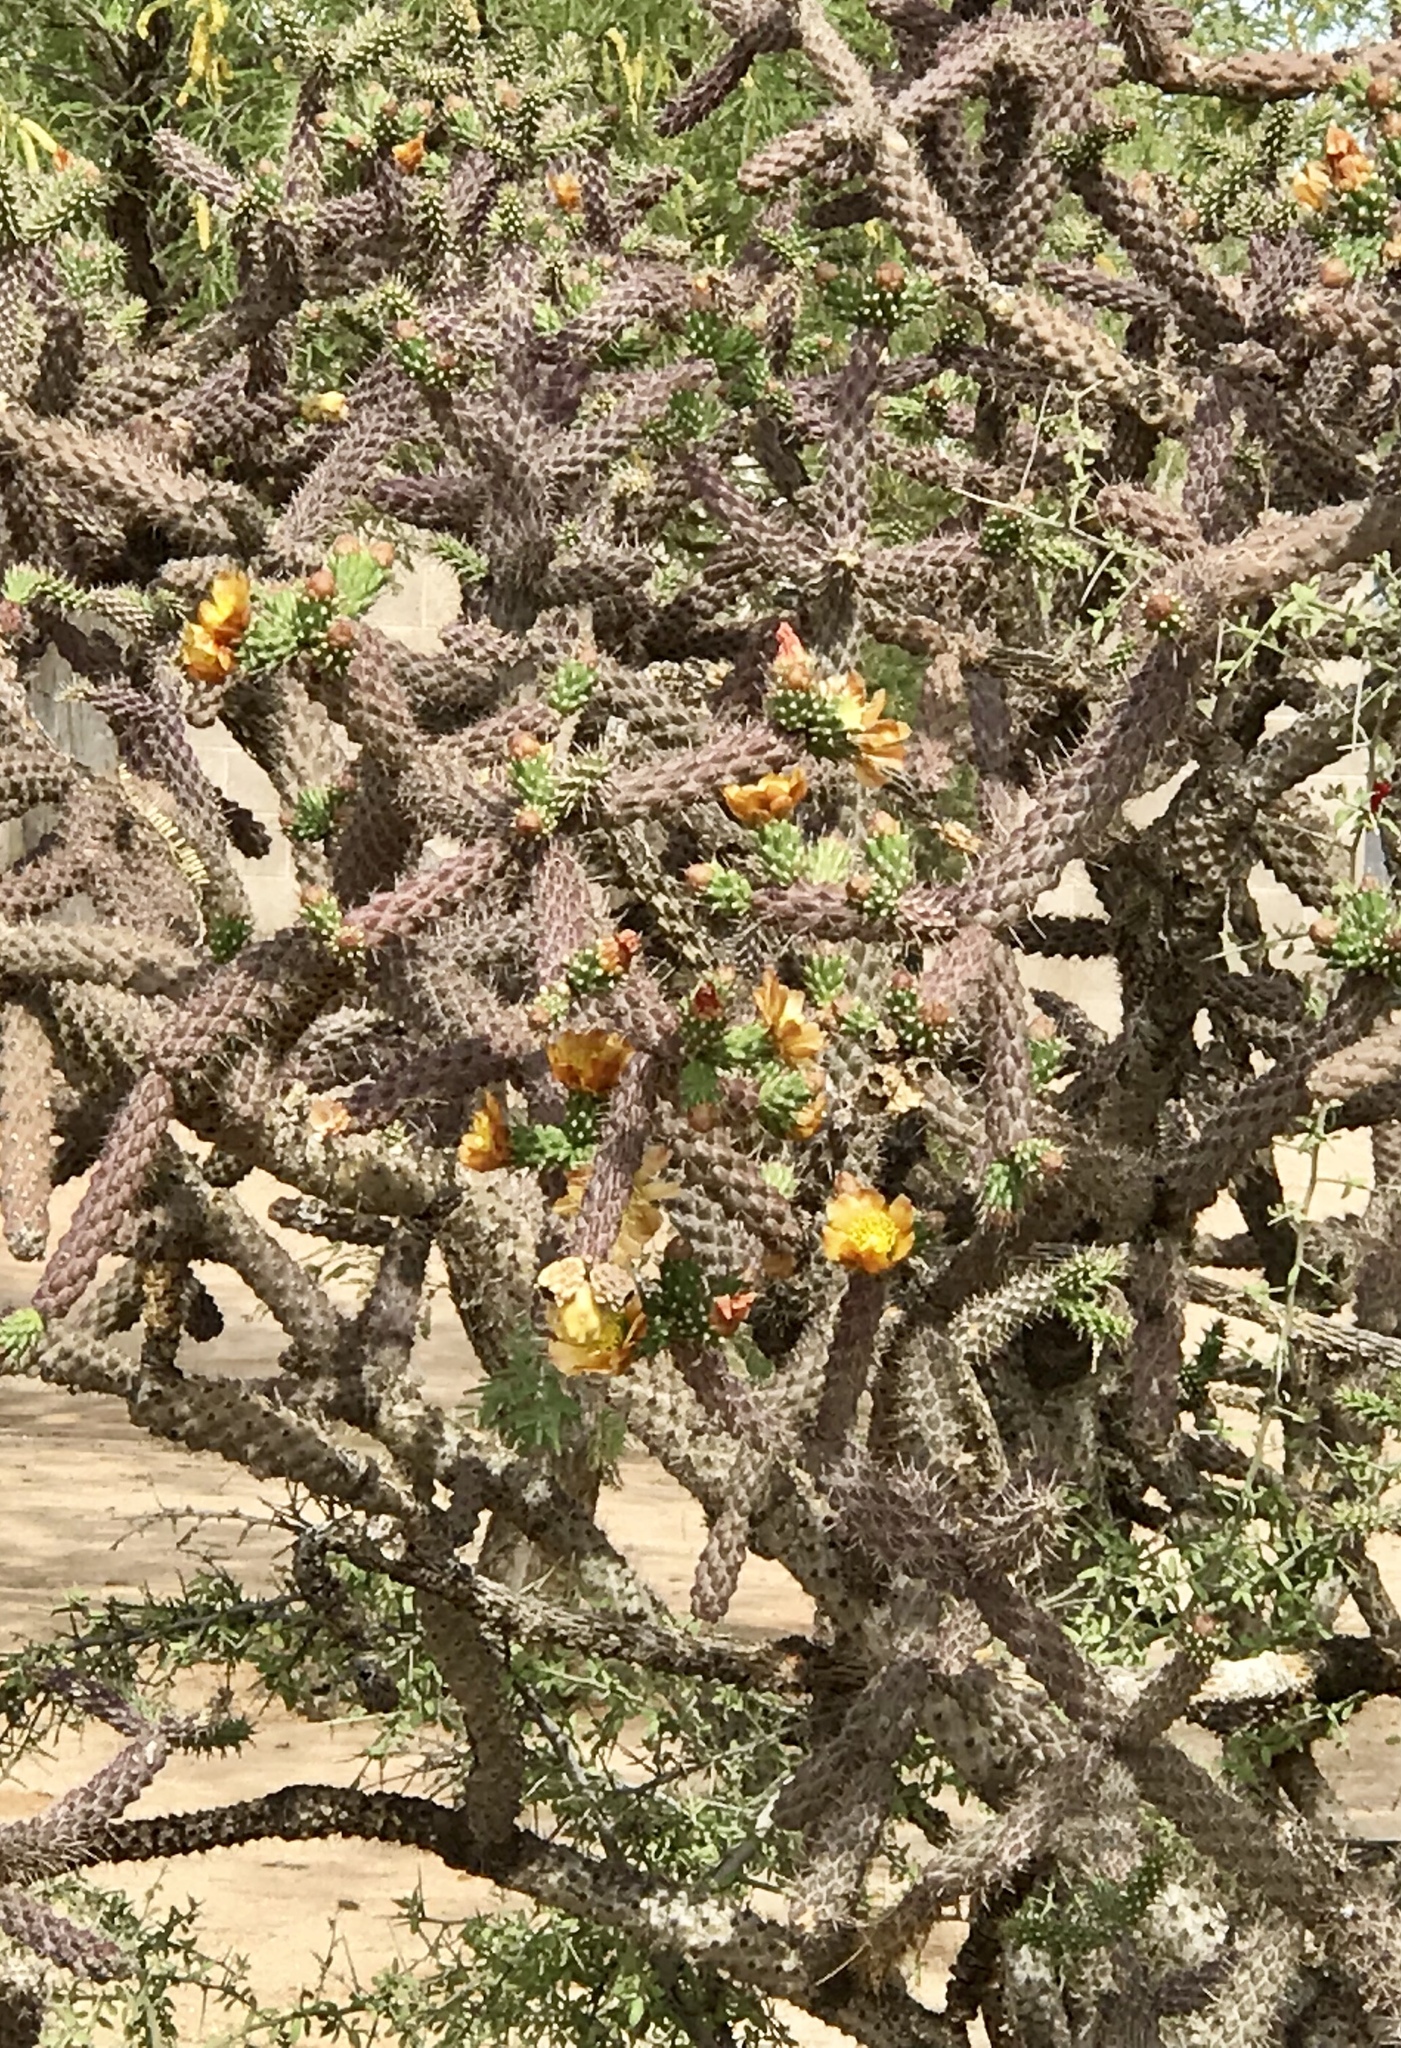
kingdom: Plantae
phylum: Tracheophyta
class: Magnoliopsida
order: Caryophyllales
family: Cactaceae
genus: Cylindropuntia
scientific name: Cylindropuntia imbricata
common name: Candelabrum cactus
